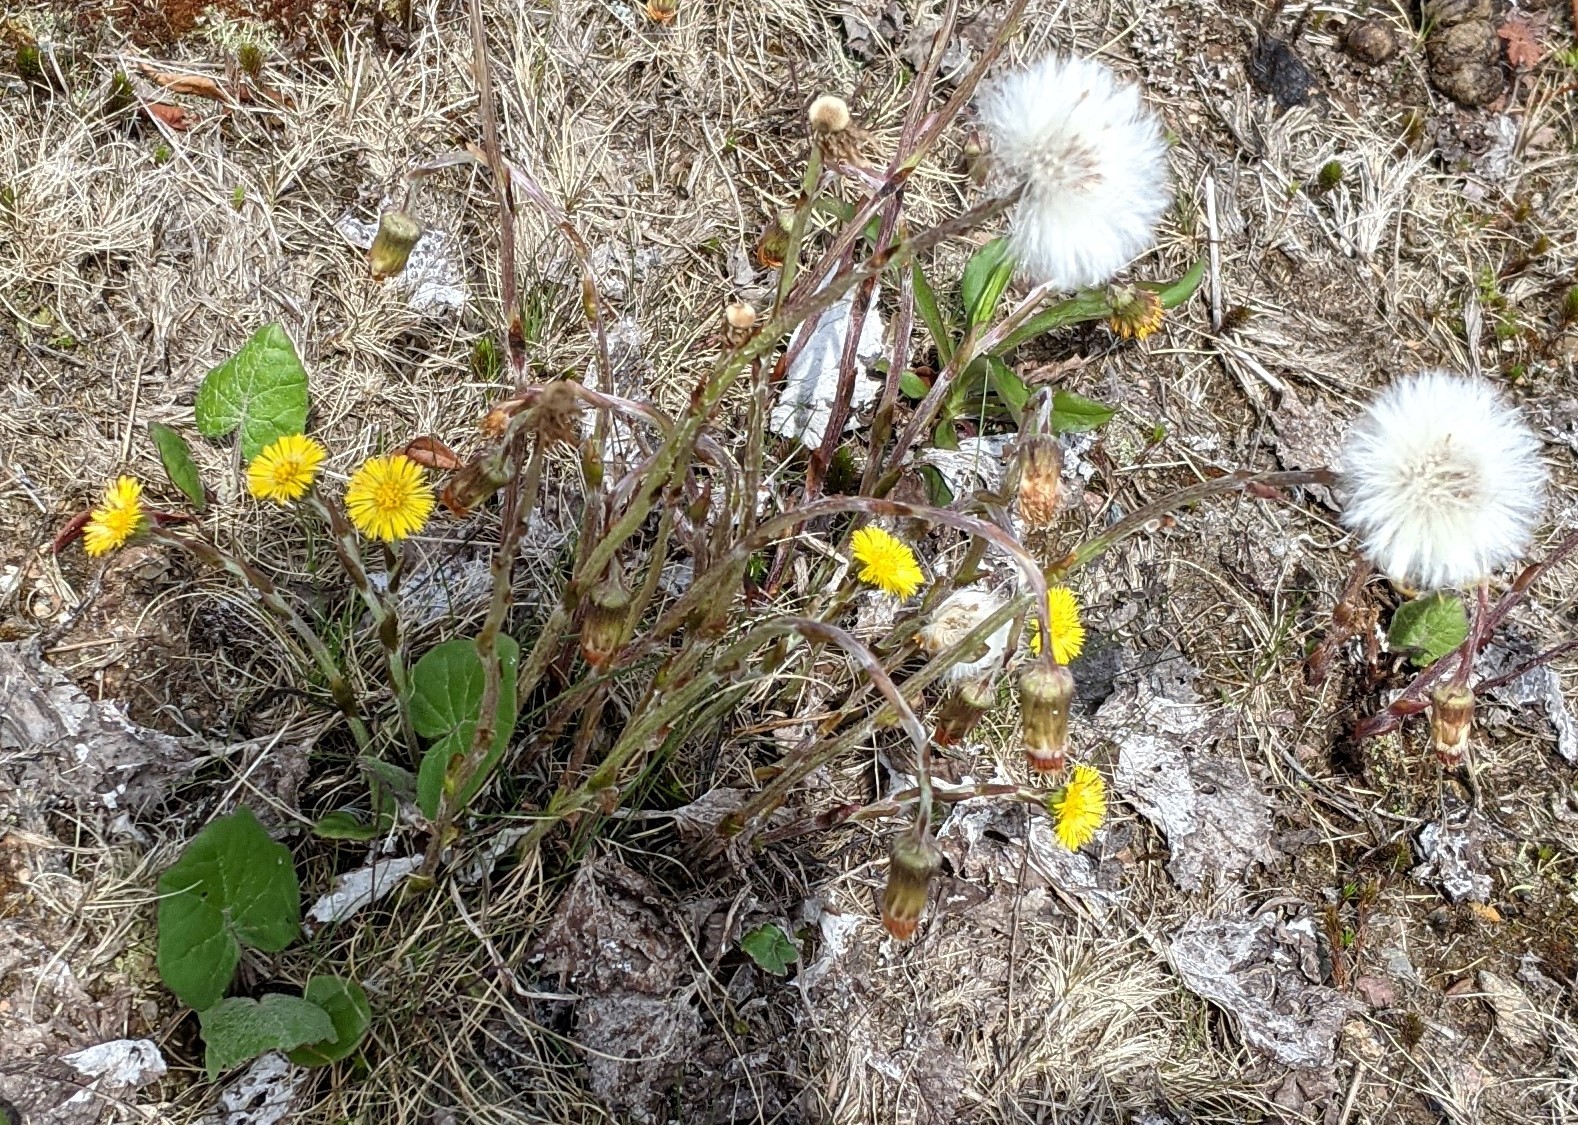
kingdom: Plantae
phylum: Tracheophyta
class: Magnoliopsida
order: Asterales
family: Asteraceae
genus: Tussilago
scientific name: Tussilago farfara
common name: Coltsfoot
